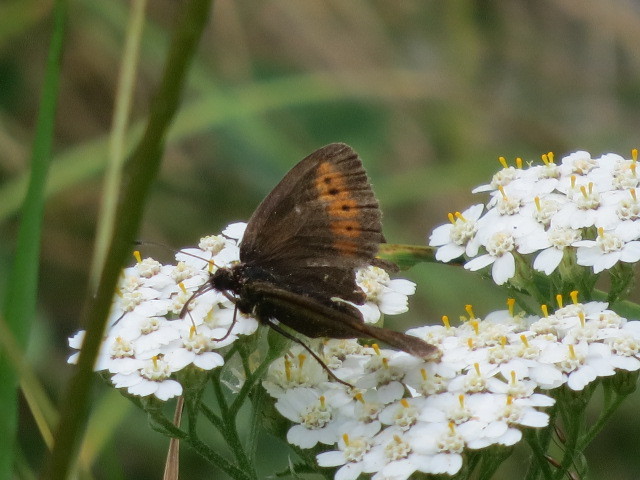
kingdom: Animalia
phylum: Arthropoda
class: Insecta
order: Lepidoptera
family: Nymphalidae
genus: Erebia
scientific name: Erebia epiphron
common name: Mountain ringlet
